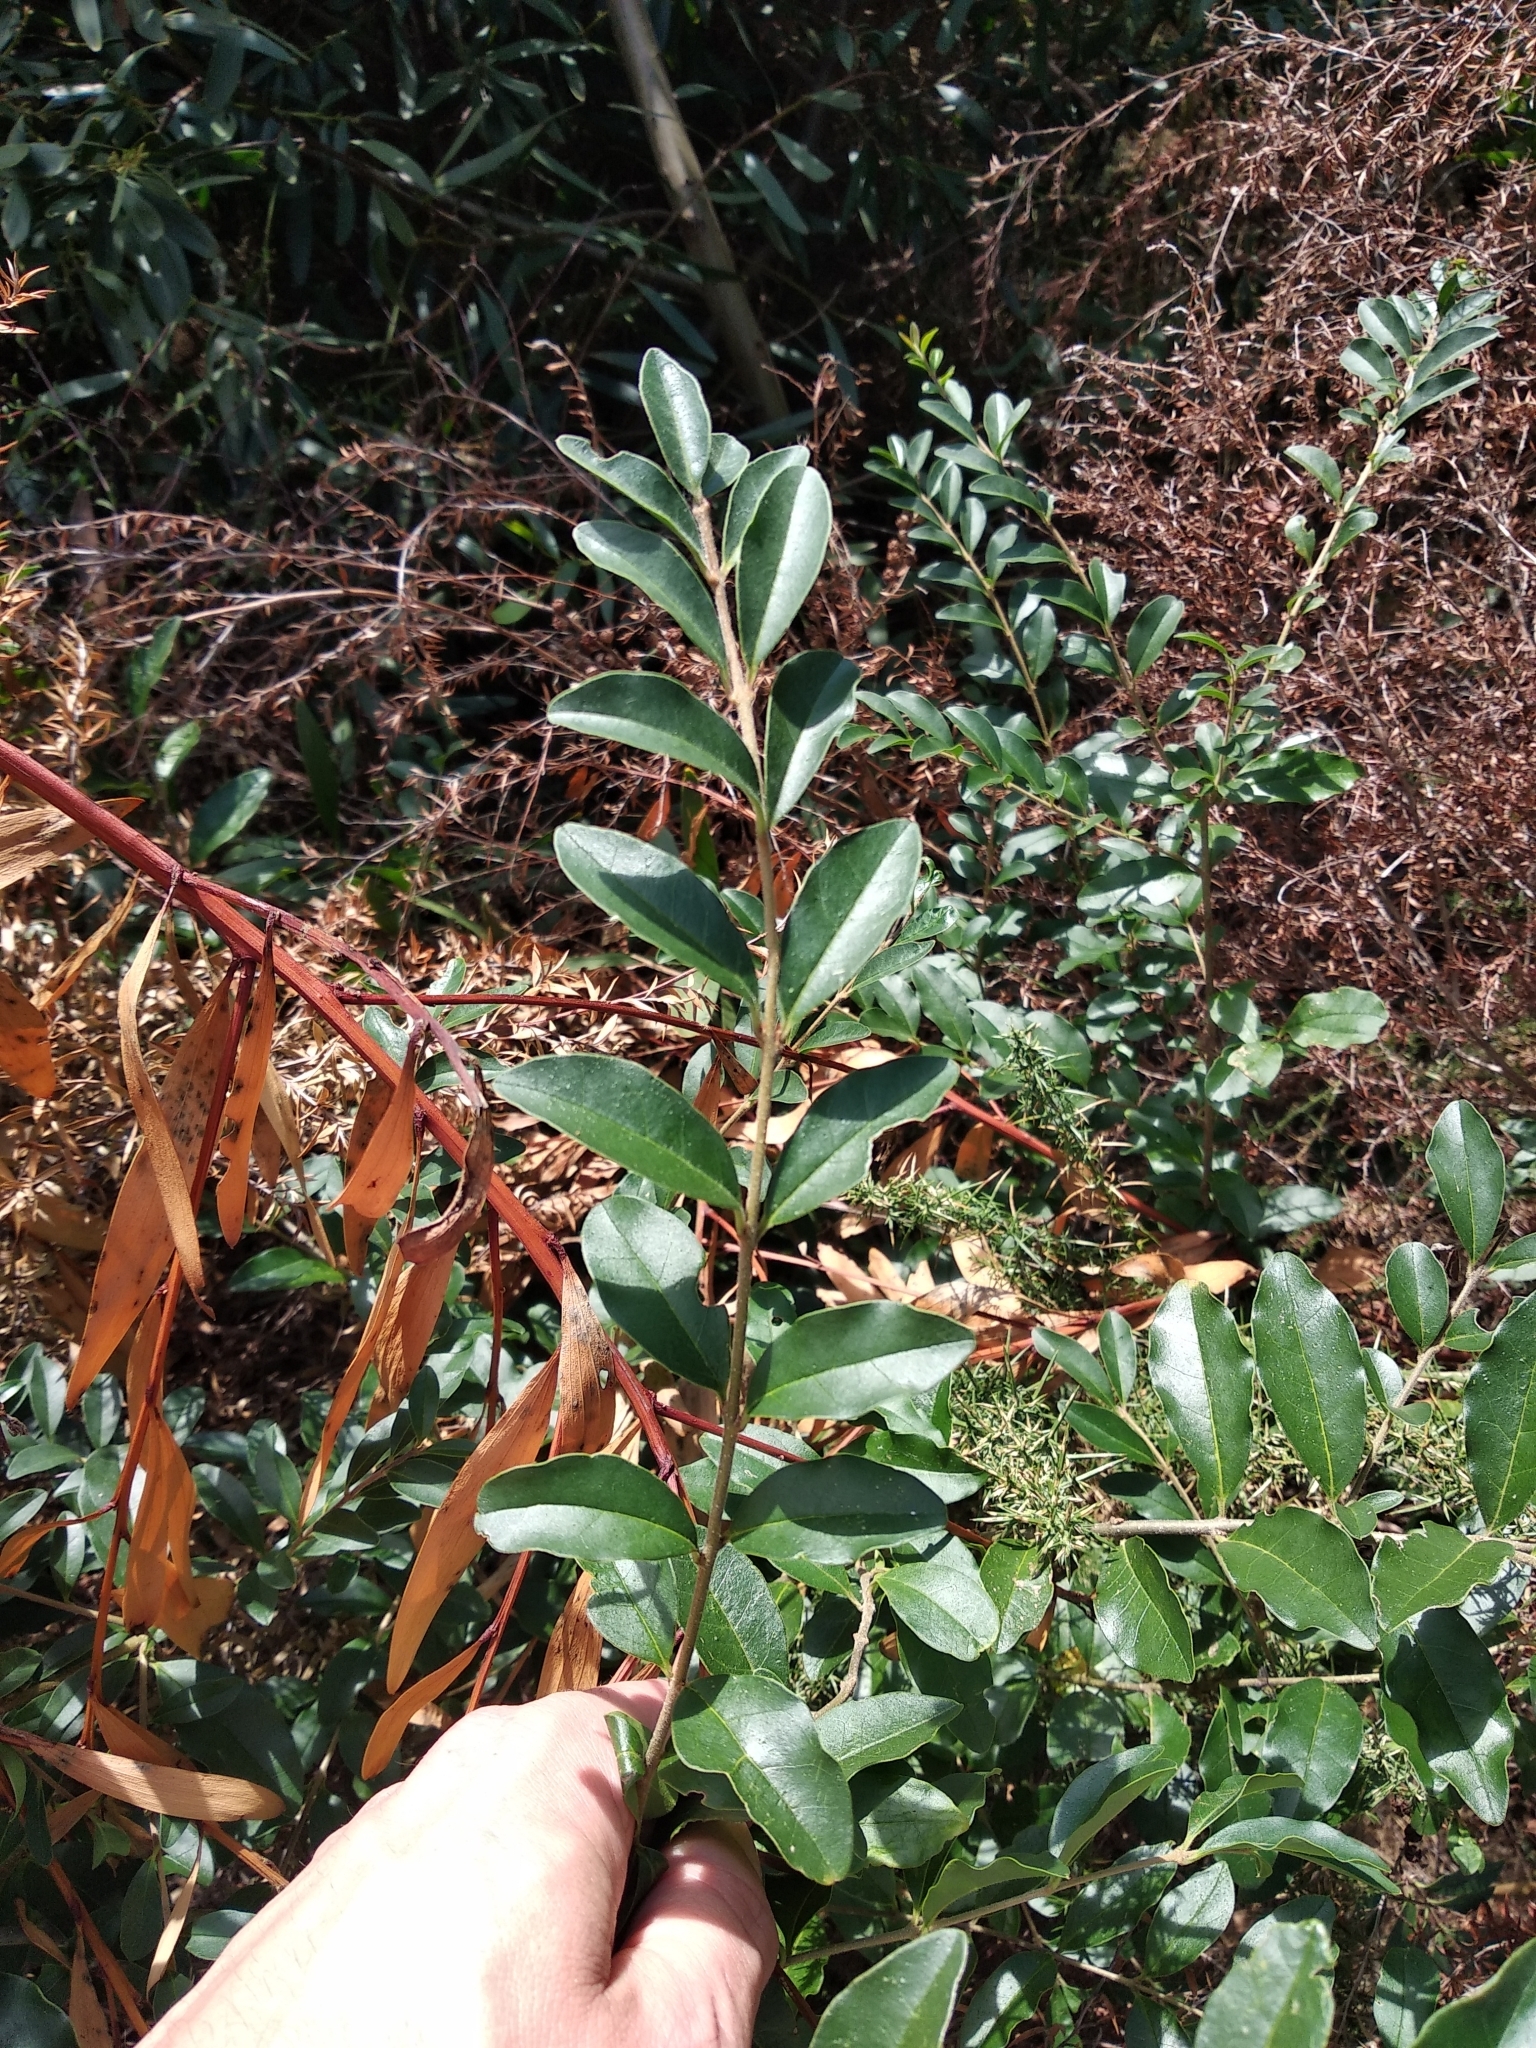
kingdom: Plantae
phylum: Tracheophyta
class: Magnoliopsida
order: Lamiales
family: Oleaceae
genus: Ligustrum
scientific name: Ligustrum sinense
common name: Chinese privet
